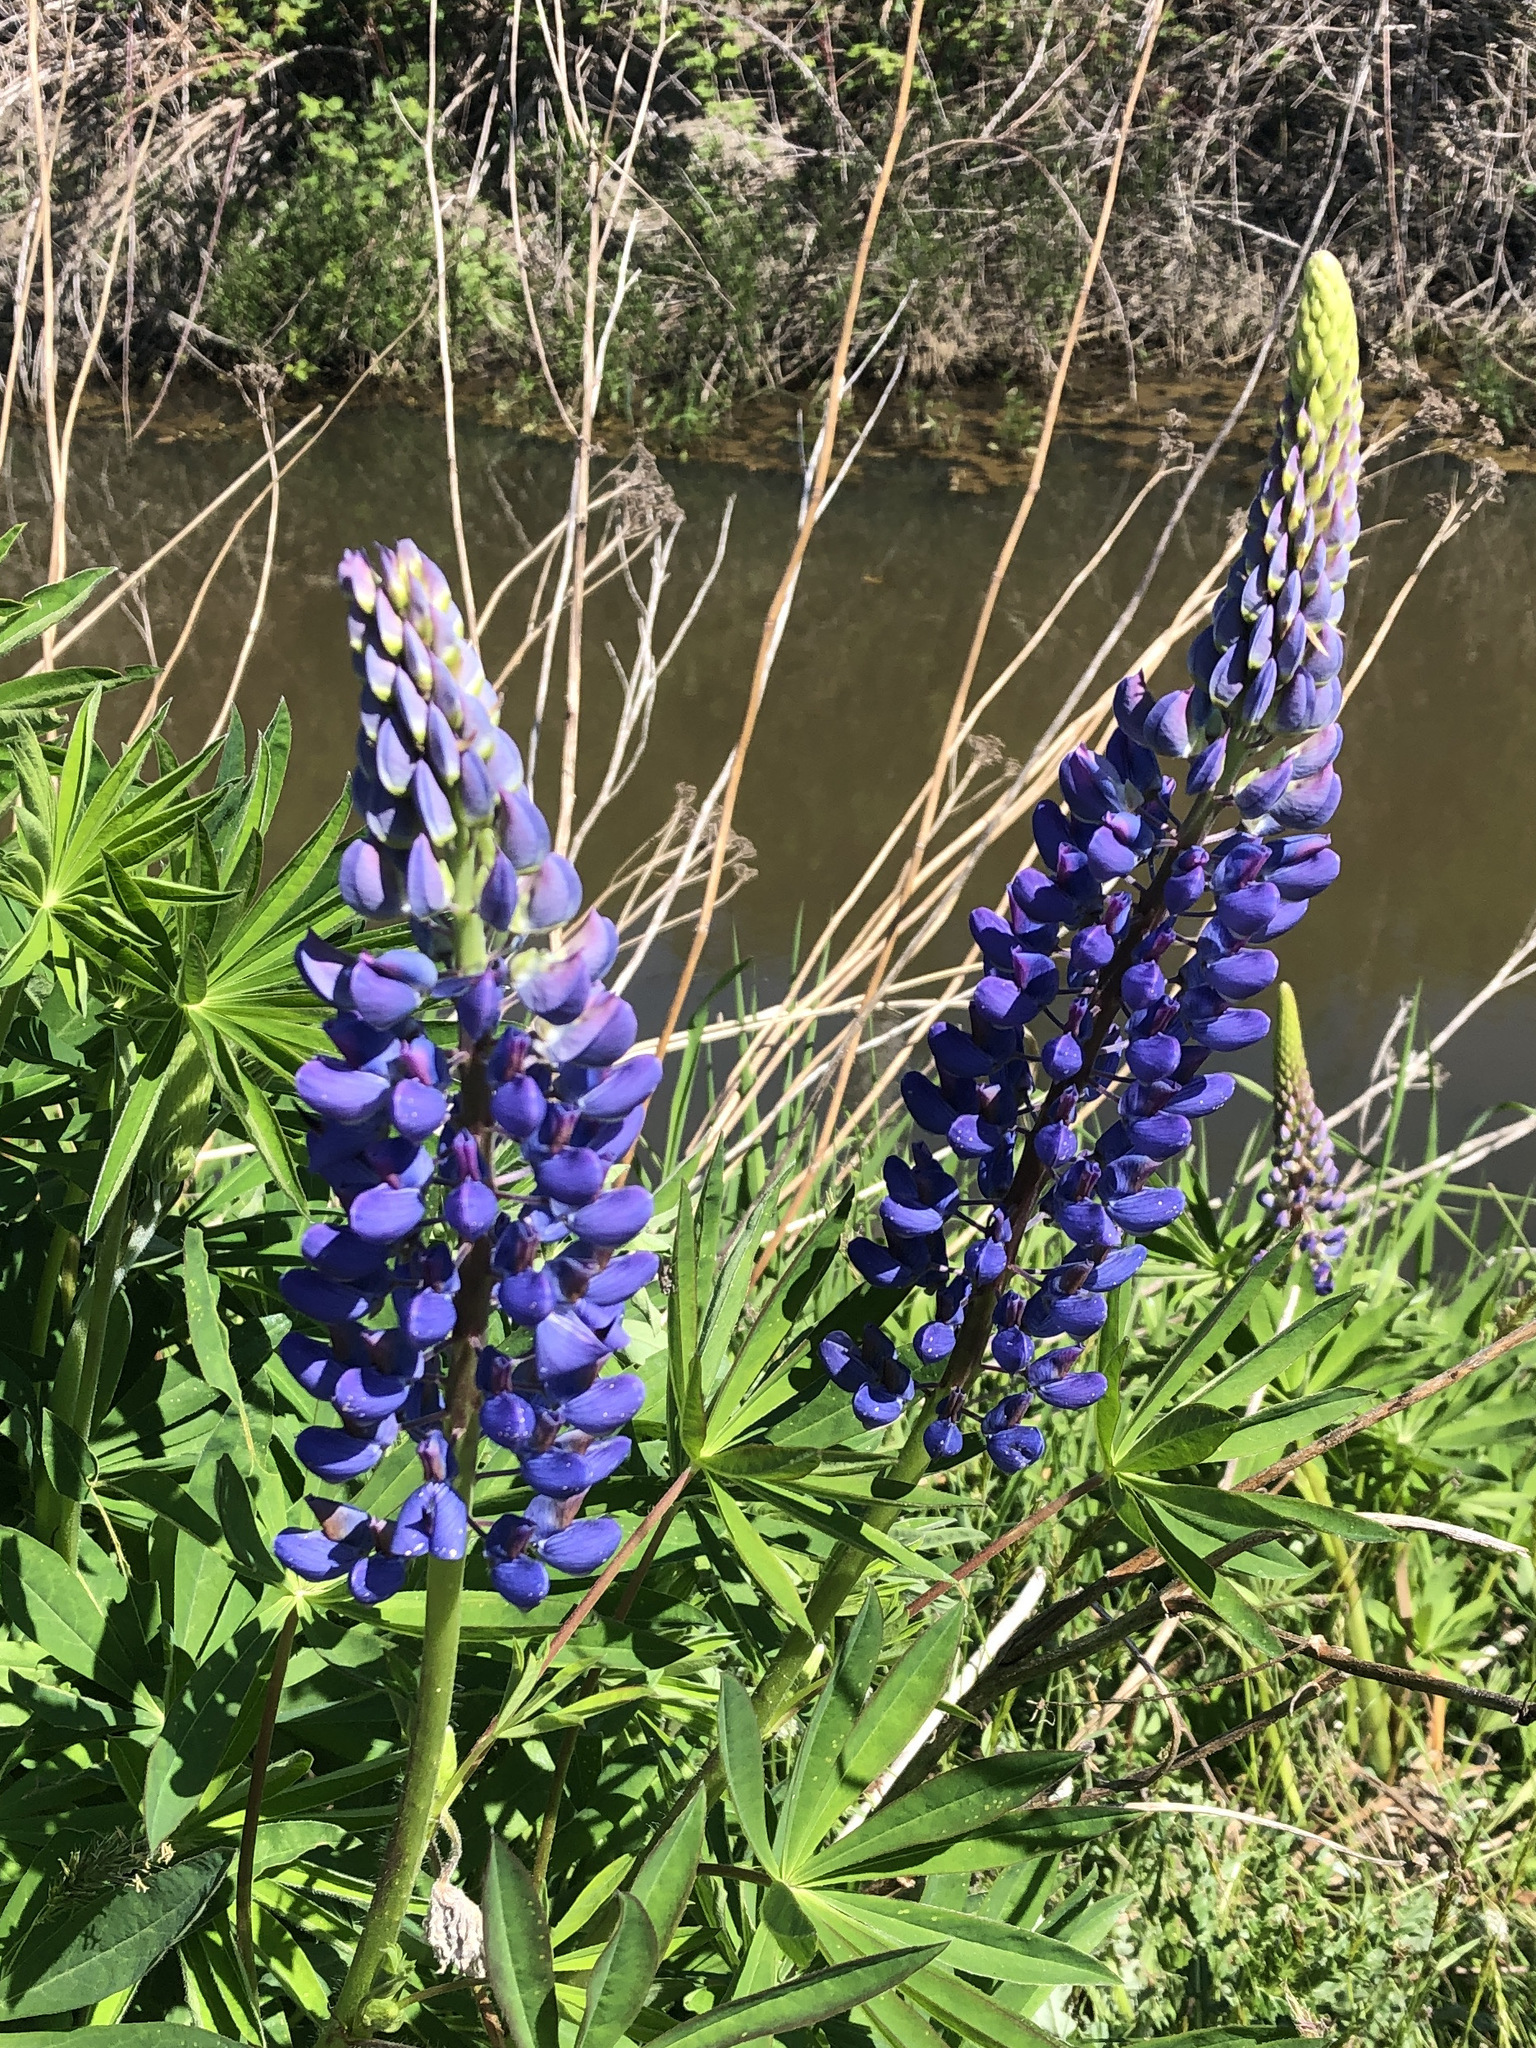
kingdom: Plantae
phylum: Tracheophyta
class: Magnoliopsida
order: Fabales
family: Fabaceae
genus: Lupinus
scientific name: Lupinus polyphyllus
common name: Garden lupin
